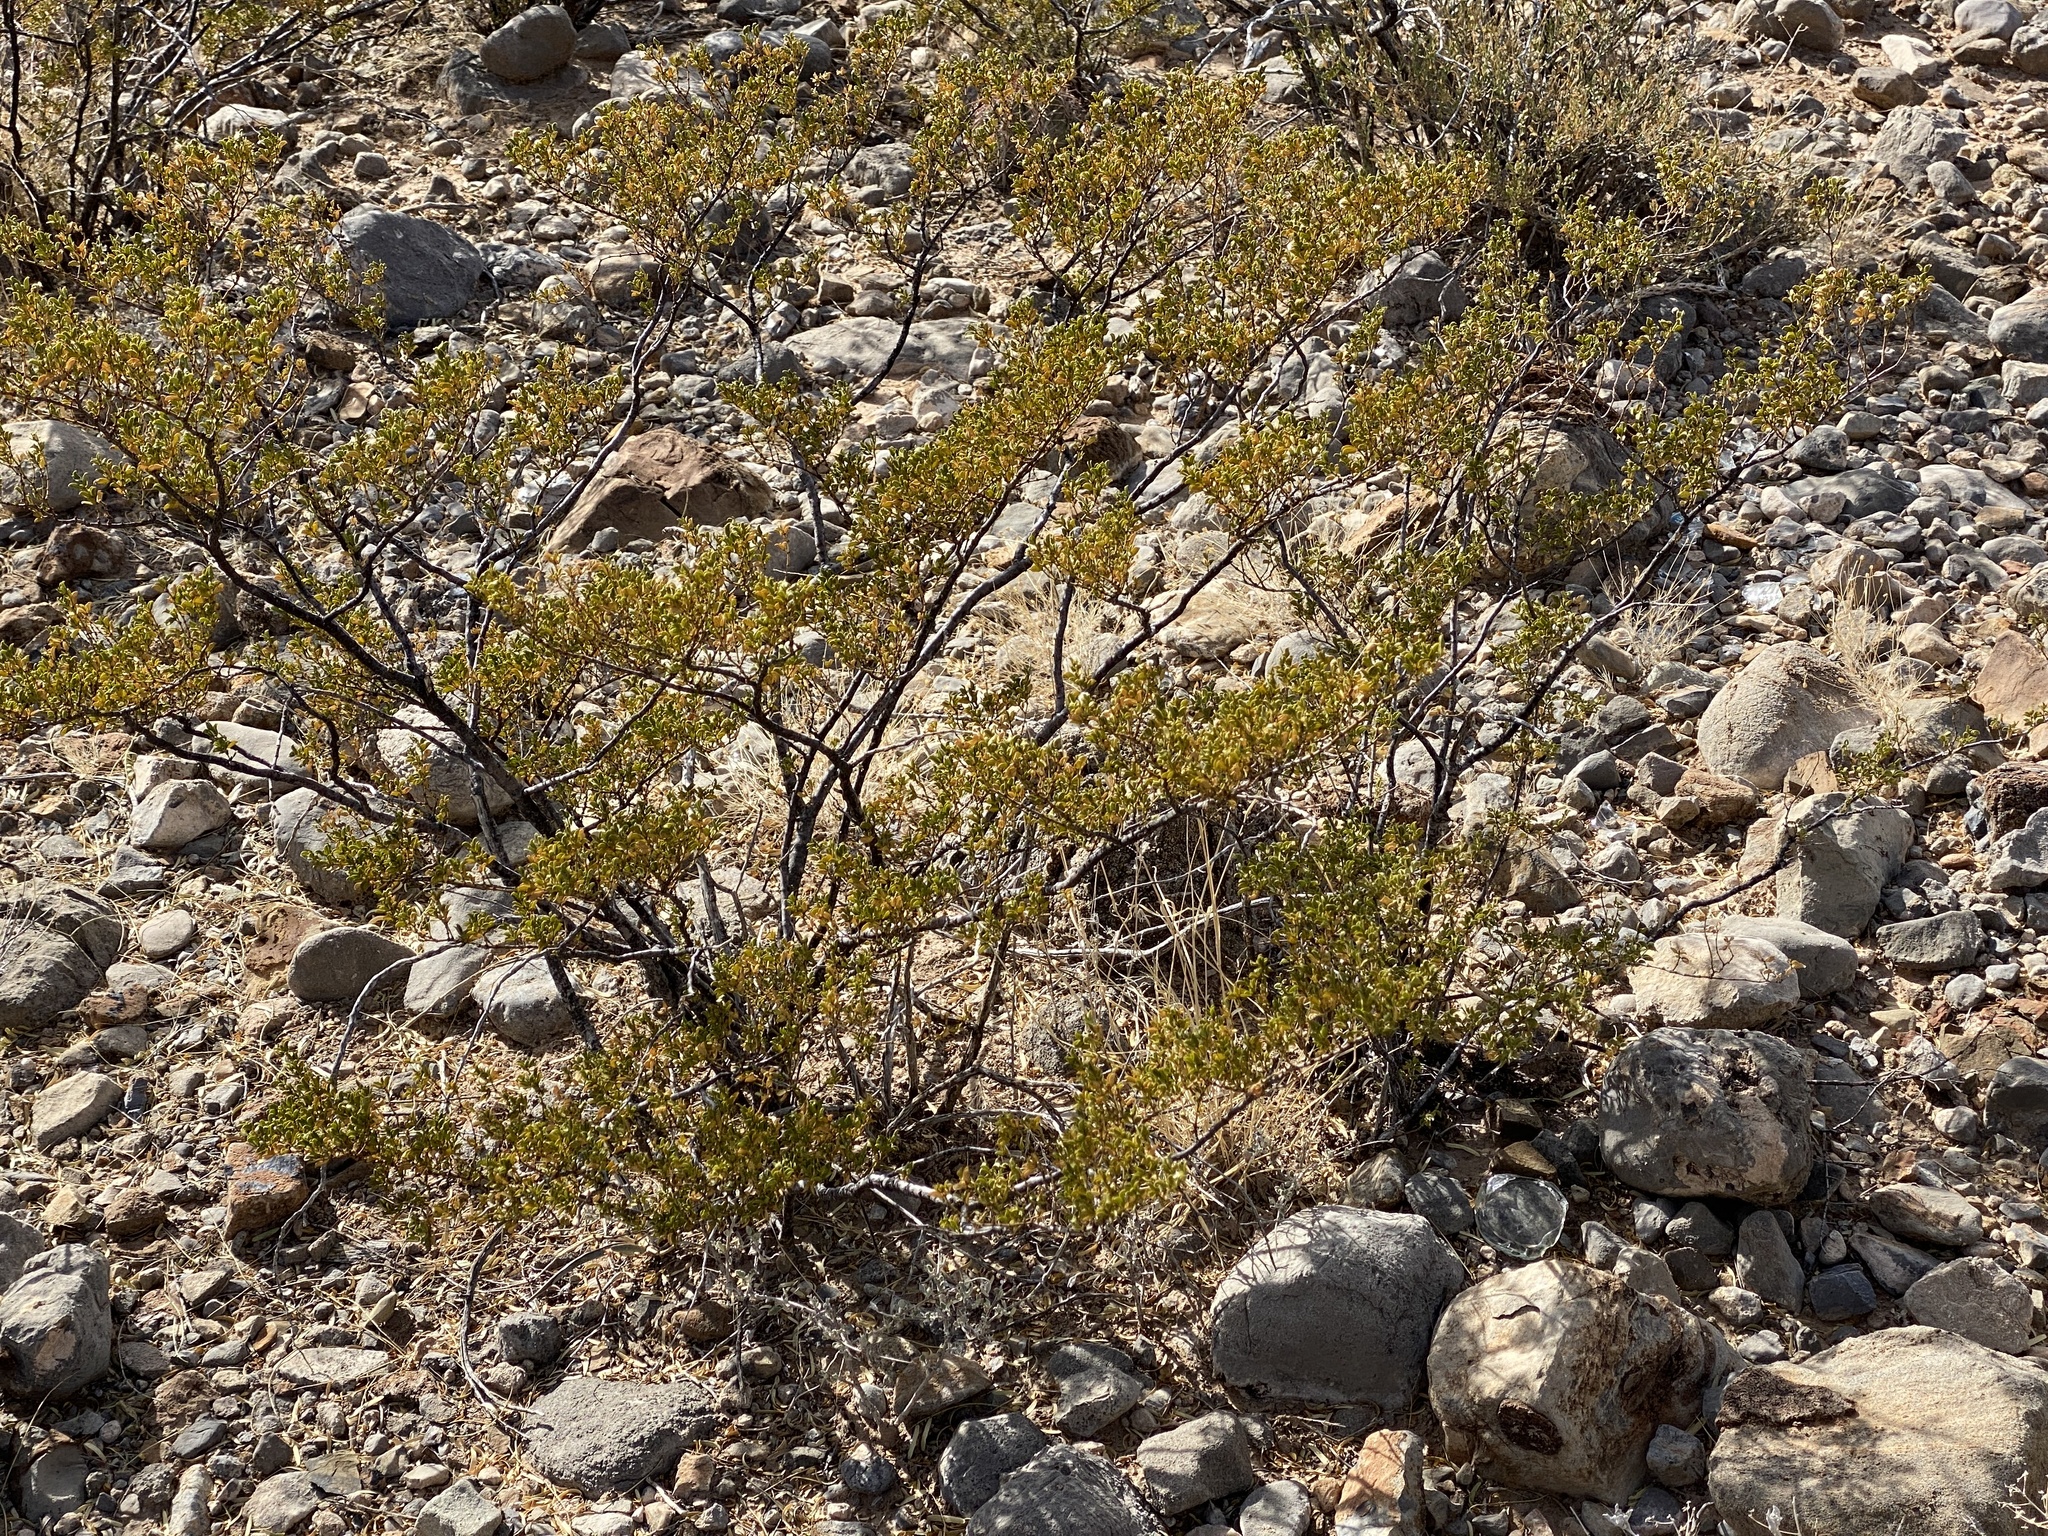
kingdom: Plantae
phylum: Tracheophyta
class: Magnoliopsida
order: Zygophyllales
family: Zygophyllaceae
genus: Larrea
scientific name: Larrea tridentata
